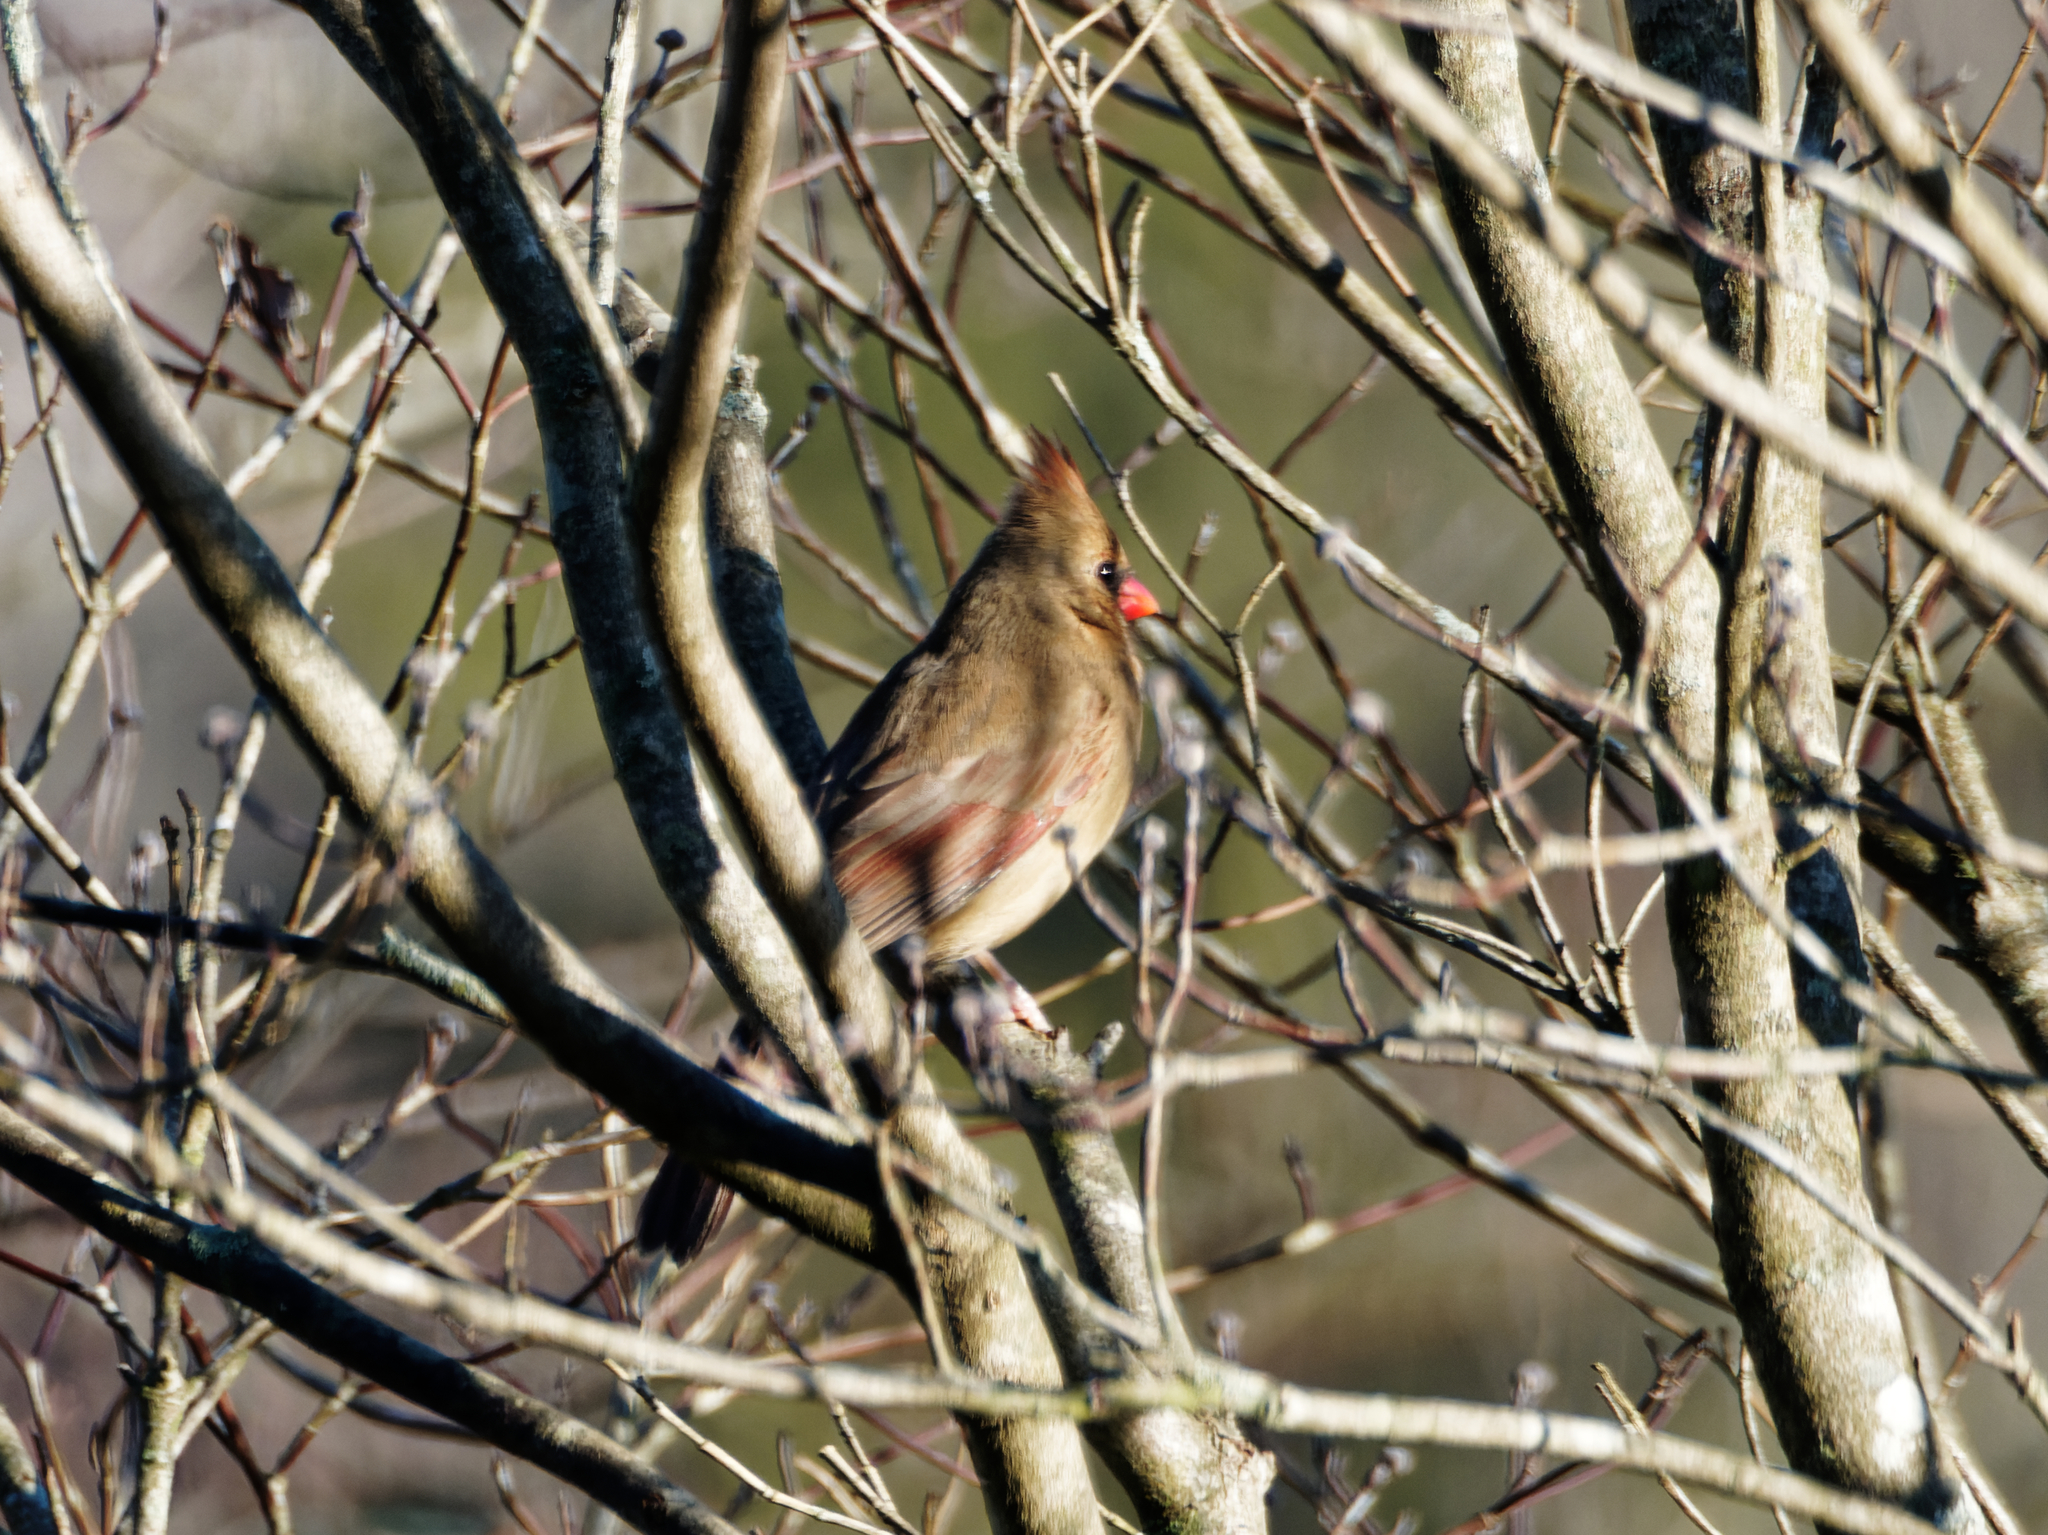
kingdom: Animalia
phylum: Chordata
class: Aves
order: Passeriformes
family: Cardinalidae
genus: Cardinalis
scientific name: Cardinalis cardinalis
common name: Northern cardinal
